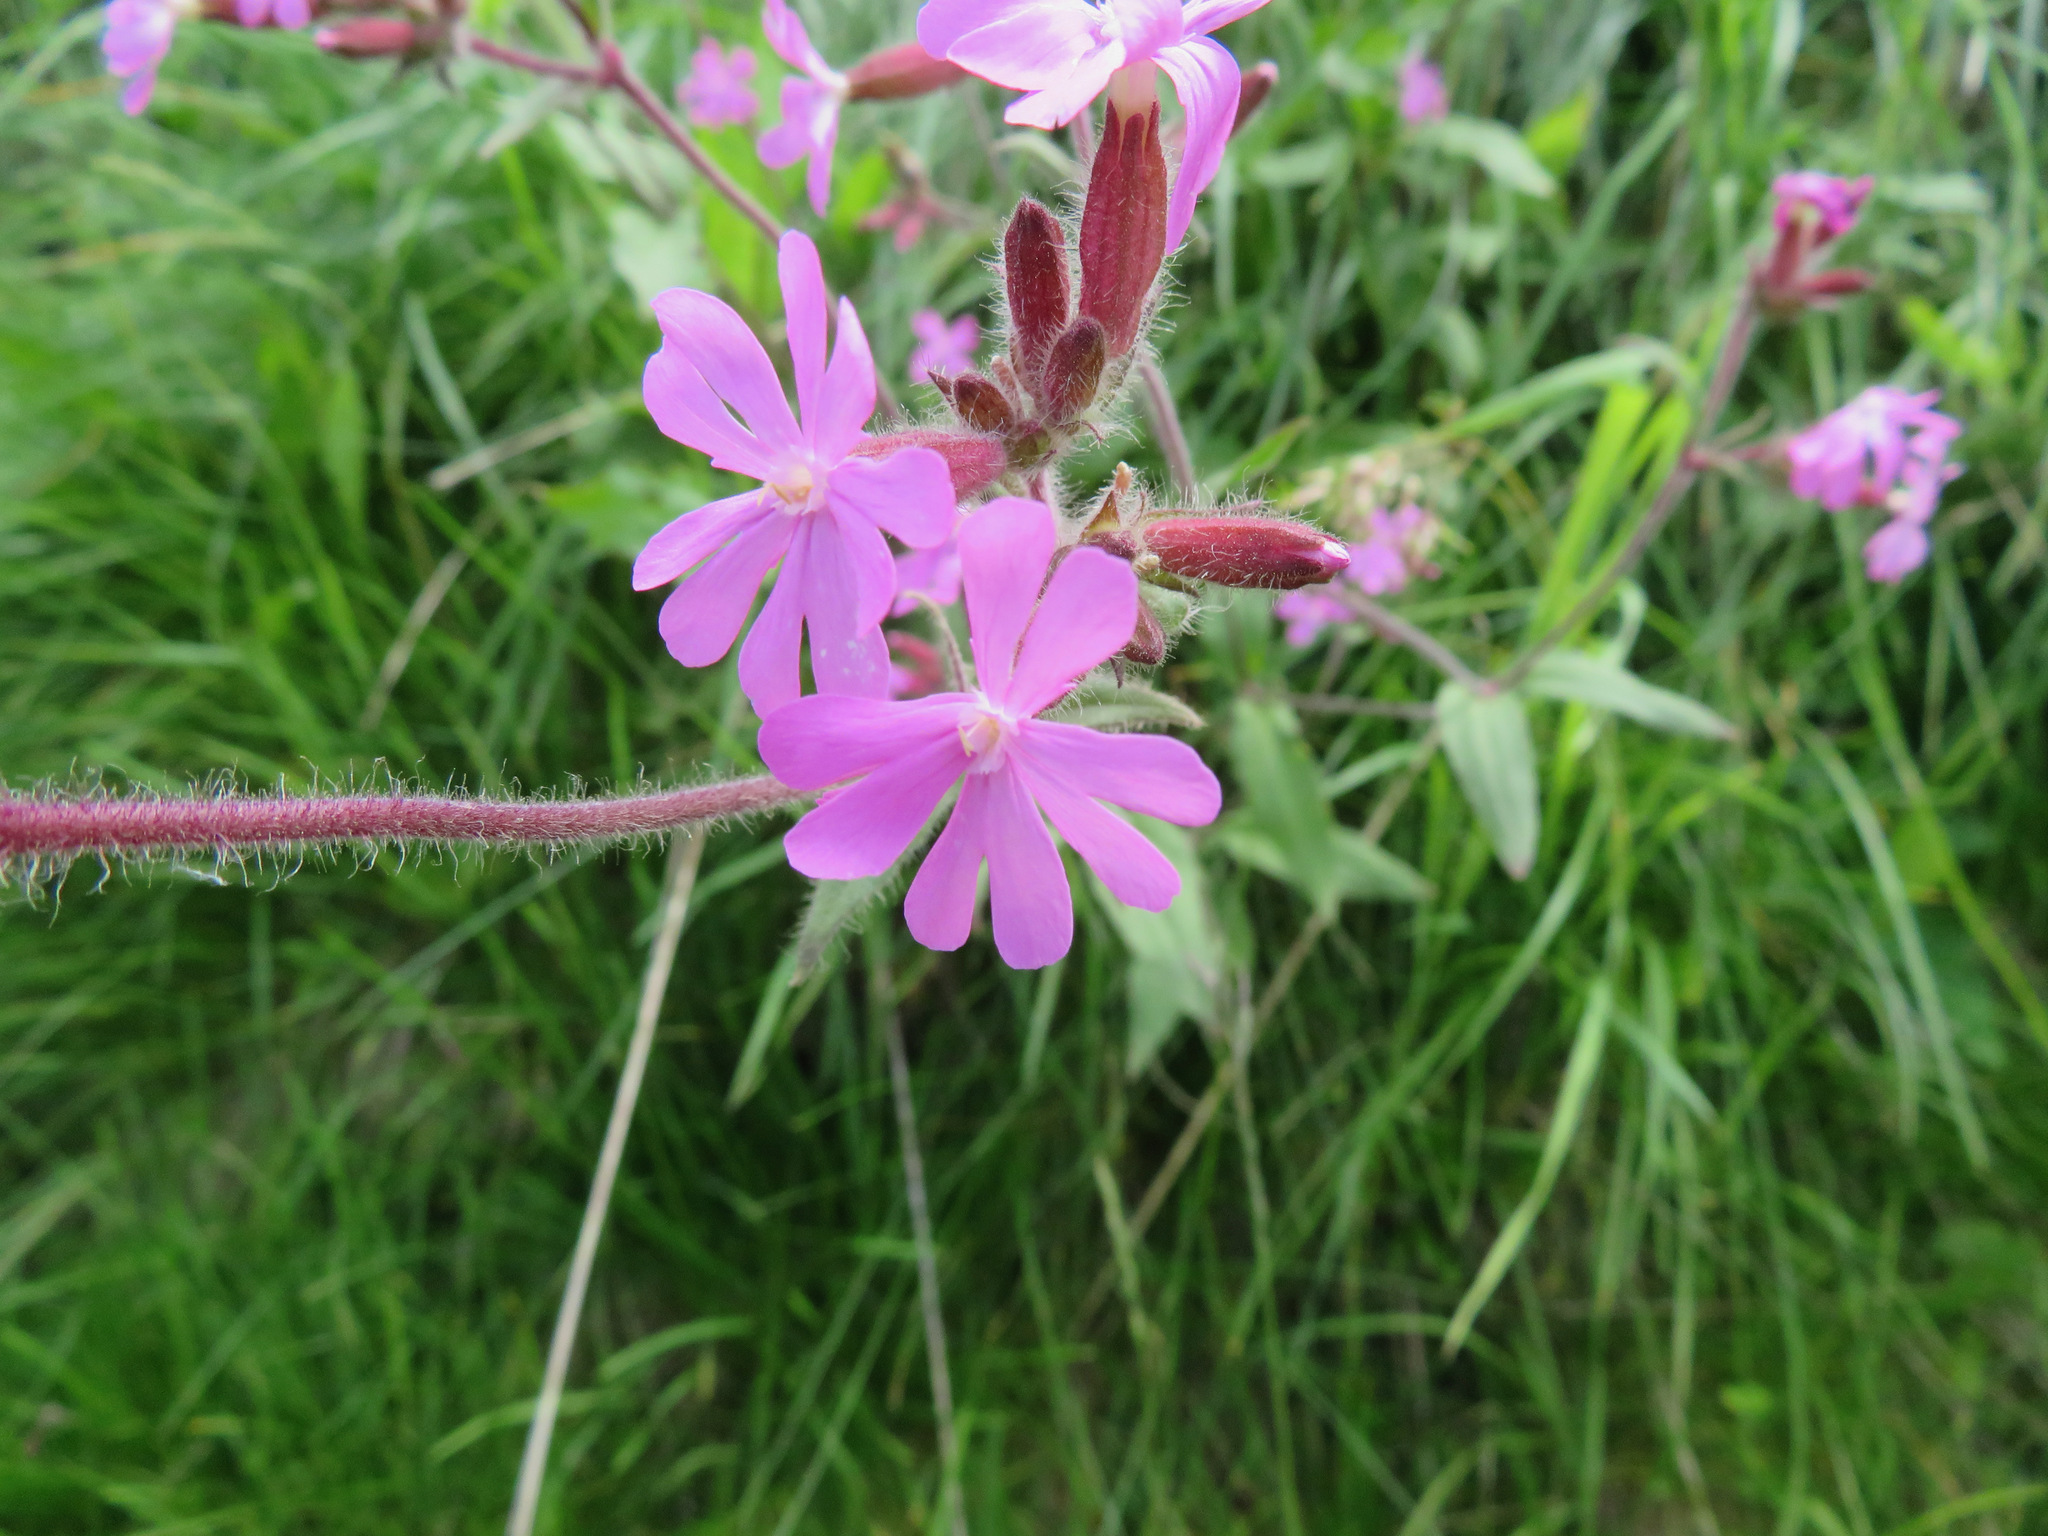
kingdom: Plantae
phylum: Tracheophyta
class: Magnoliopsida
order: Caryophyllales
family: Caryophyllaceae
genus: Silene
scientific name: Silene dioica
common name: Red campion
